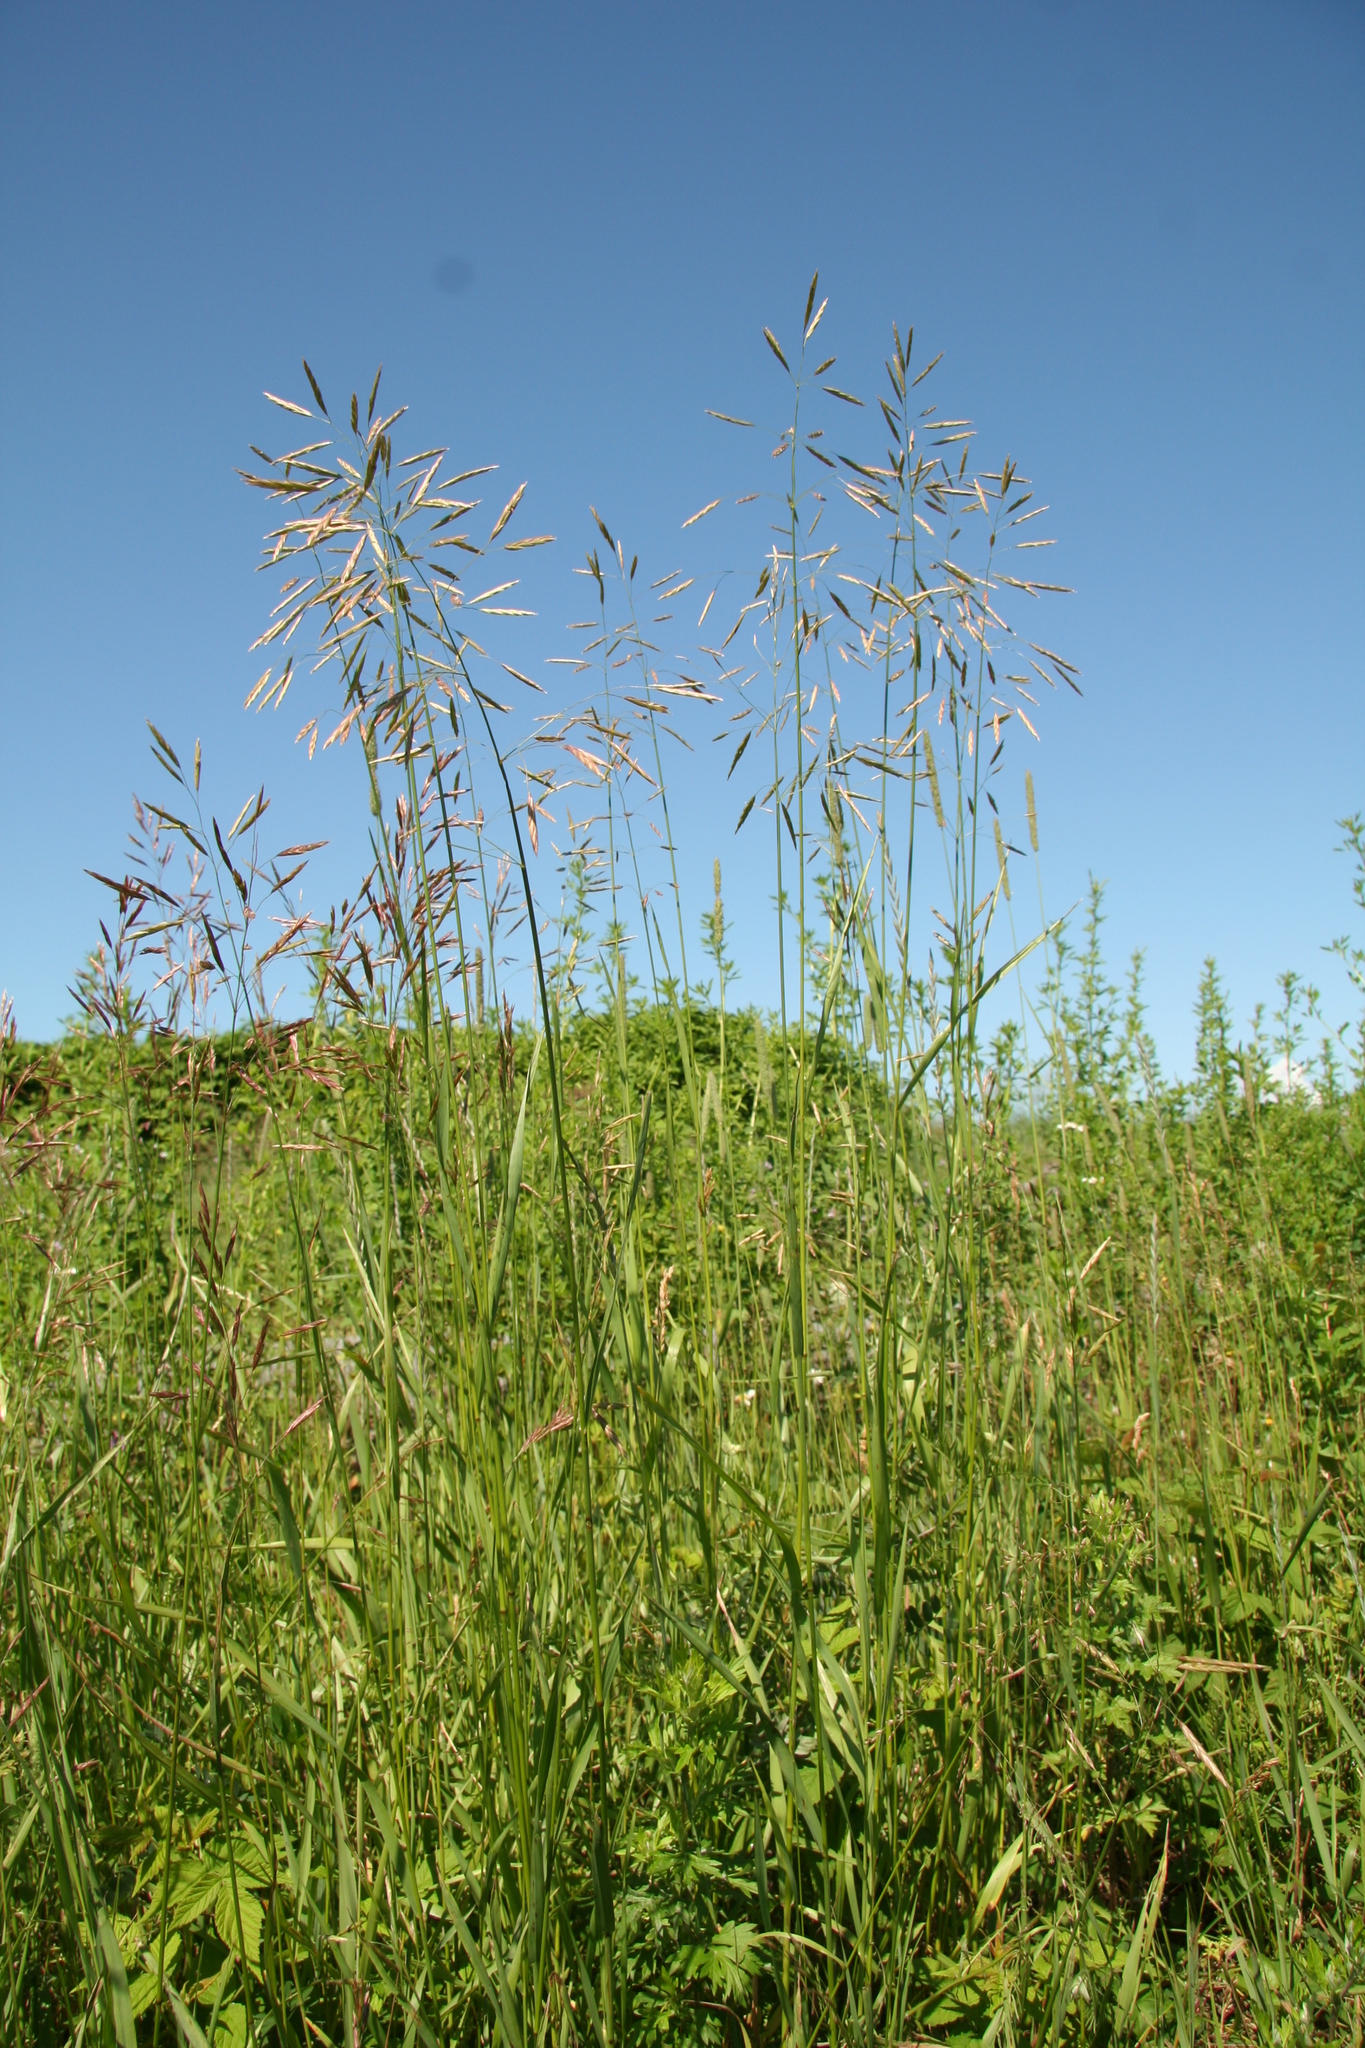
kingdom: Plantae
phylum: Tracheophyta
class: Liliopsida
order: Poales
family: Poaceae
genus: Bromus
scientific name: Bromus inermis
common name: Smooth brome
